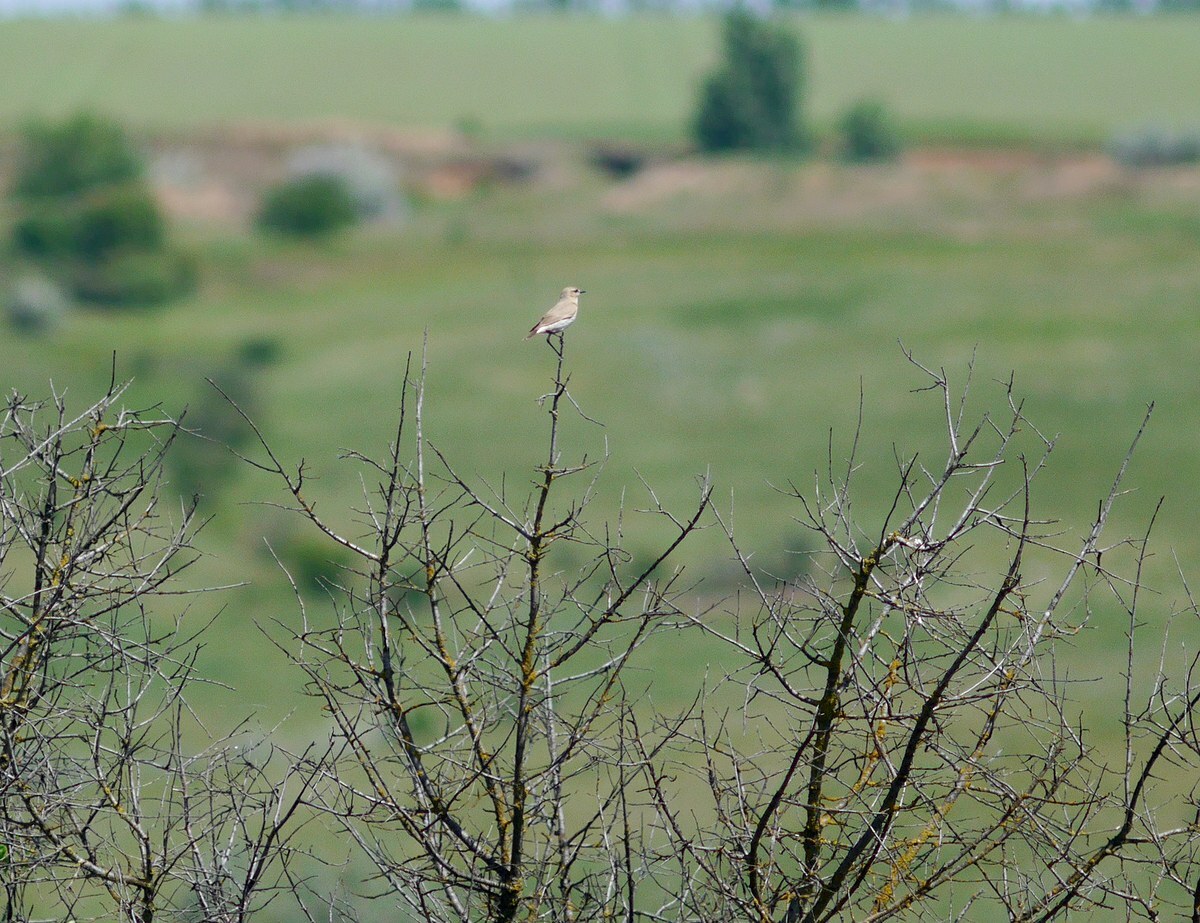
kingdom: Animalia
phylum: Chordata
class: Aves
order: Passeriformes
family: Muscicapidae
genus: Oenanthe
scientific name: Oenanthe isabellina
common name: Isabelline wheatear
